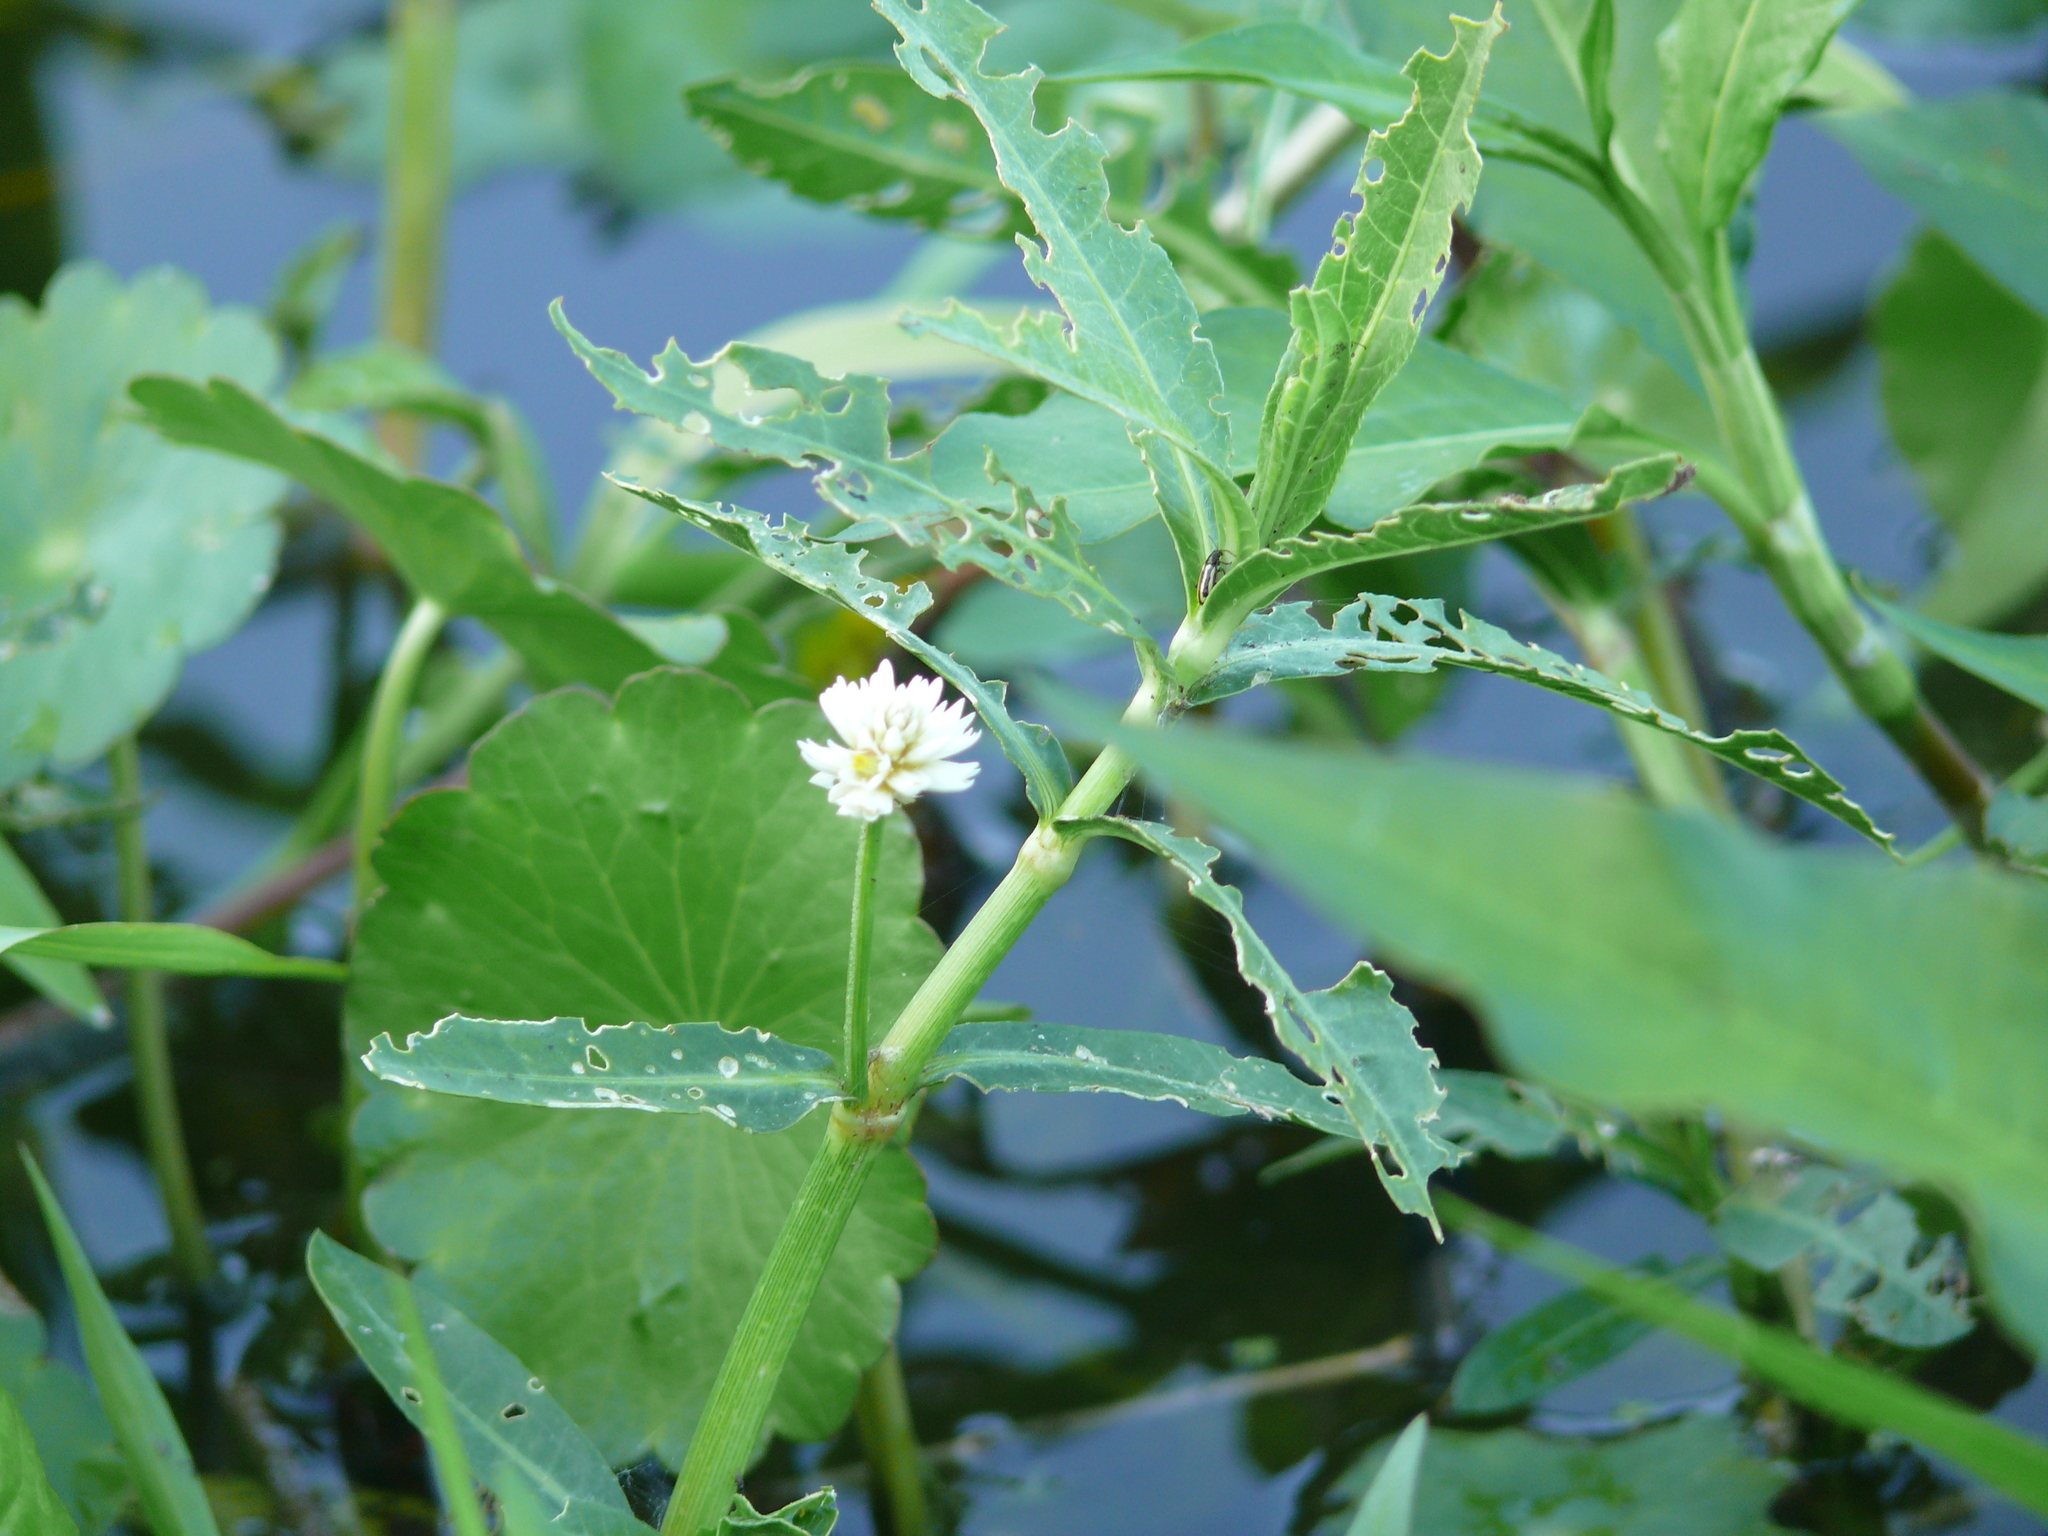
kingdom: Plantae
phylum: Tracheophyta
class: Magnoliopsida
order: Caryophyllales
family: Amaranthaceae
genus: Alternanthera
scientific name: Alternanthera philoxeroides
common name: Alligatorweed
